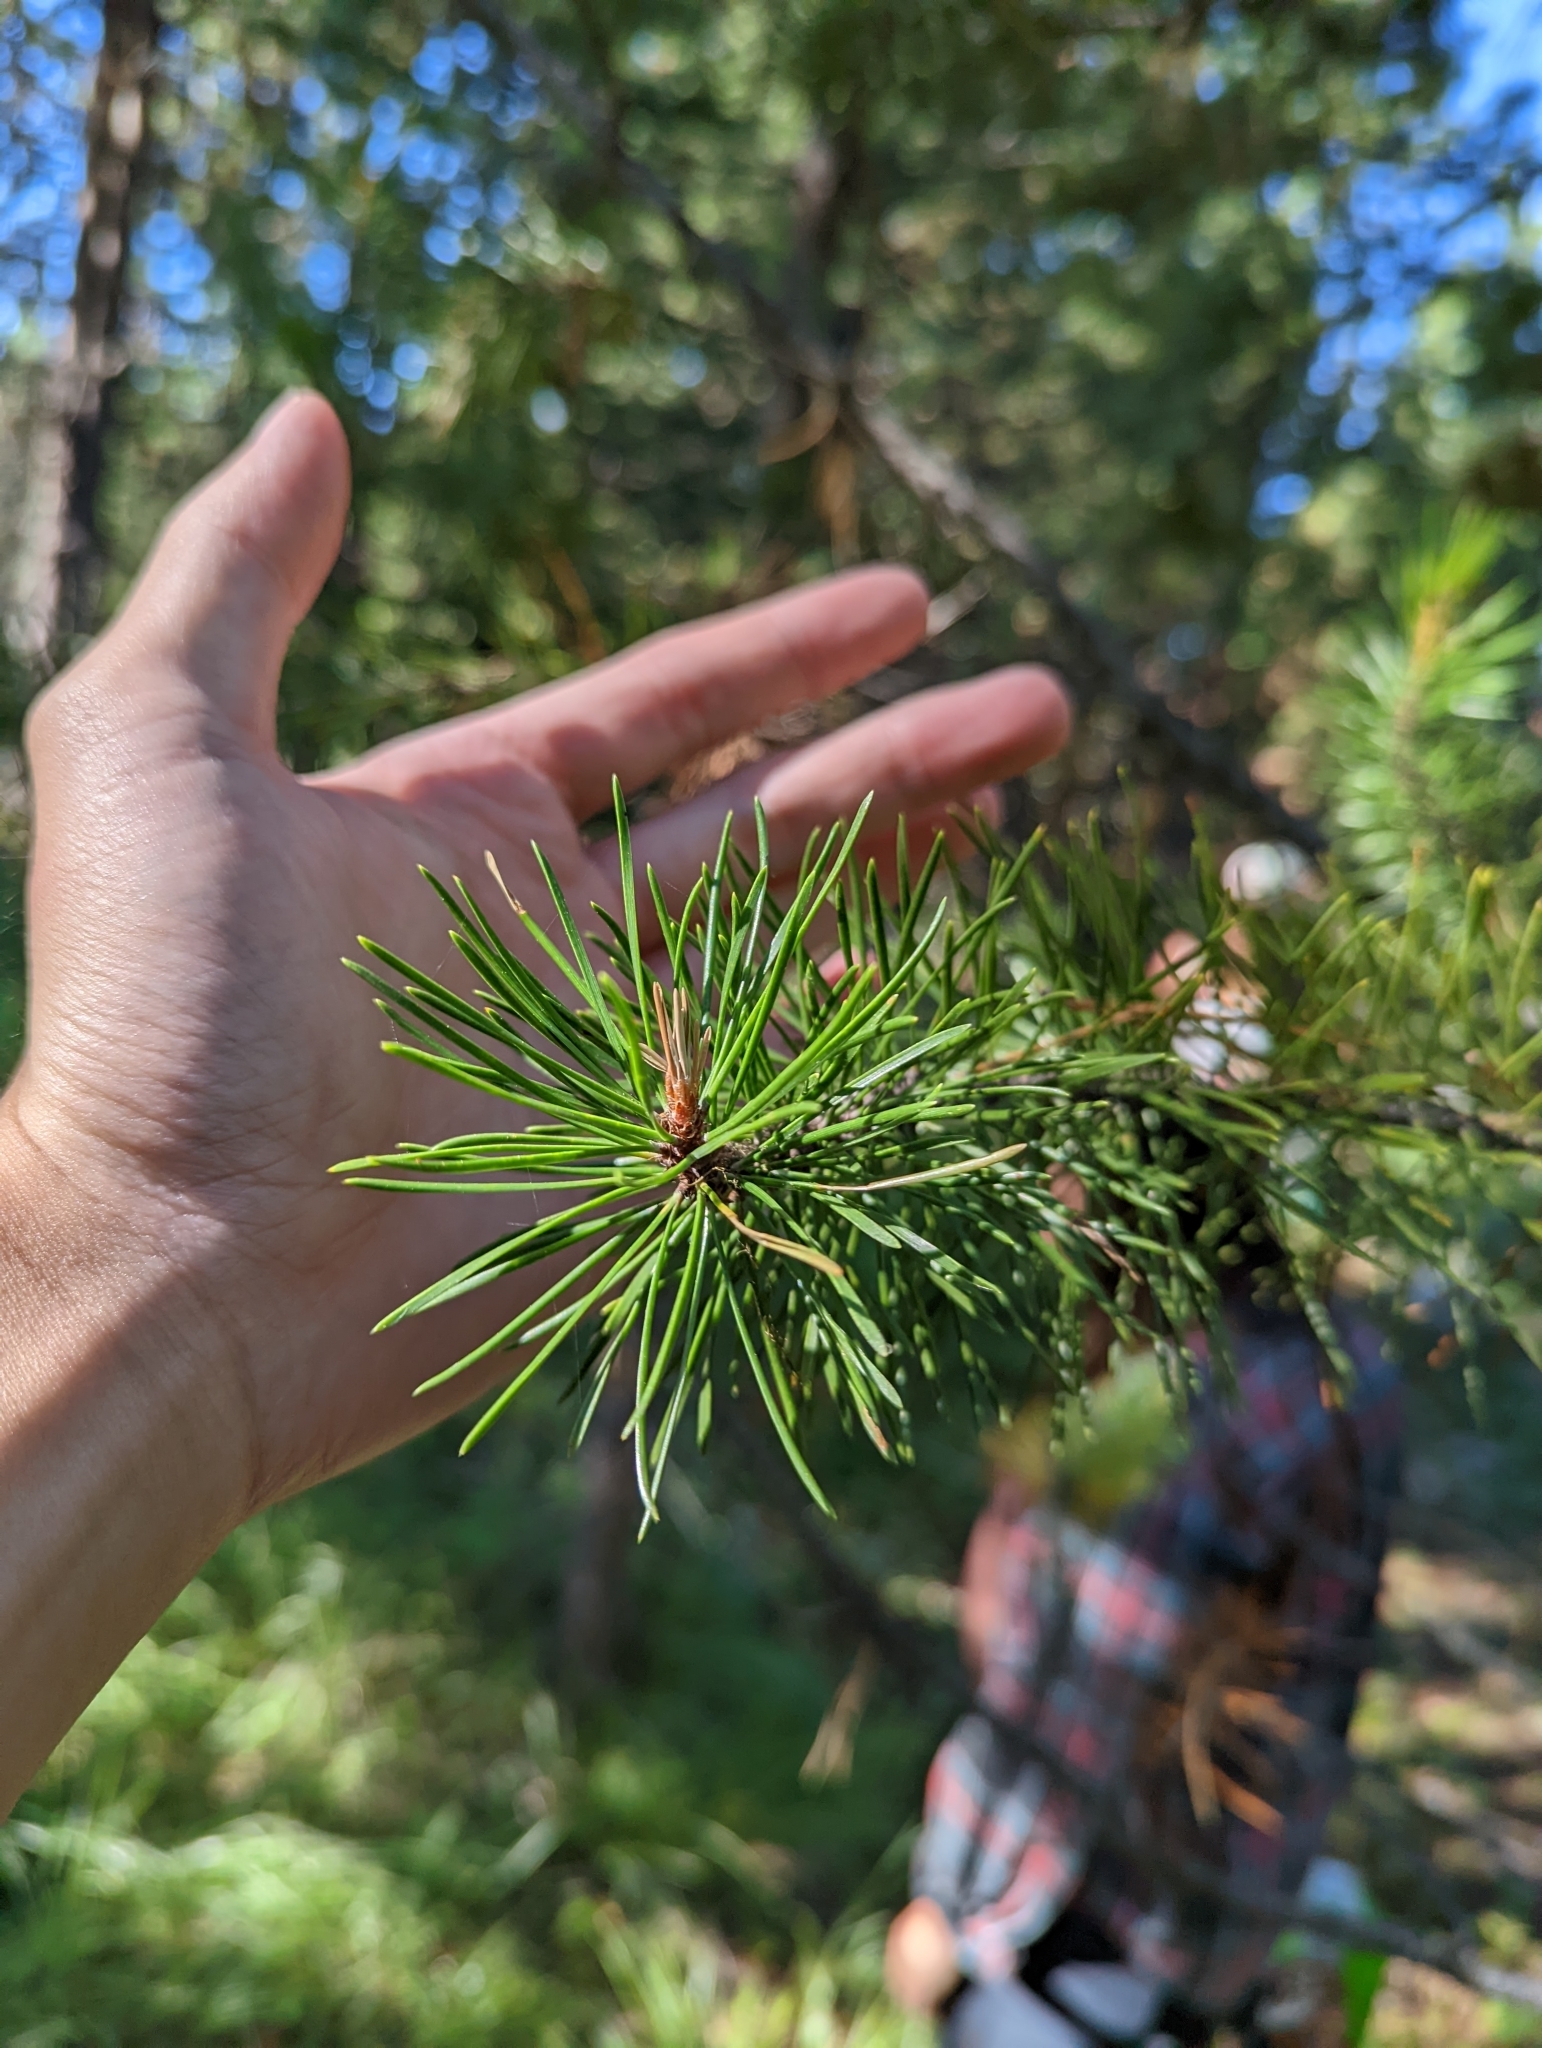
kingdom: Plantae
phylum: Tracheophyta
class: Pinopsida
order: Pinales
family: Pinaceae
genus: Pinus
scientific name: Pinus contorta
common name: Lodgepole pine
